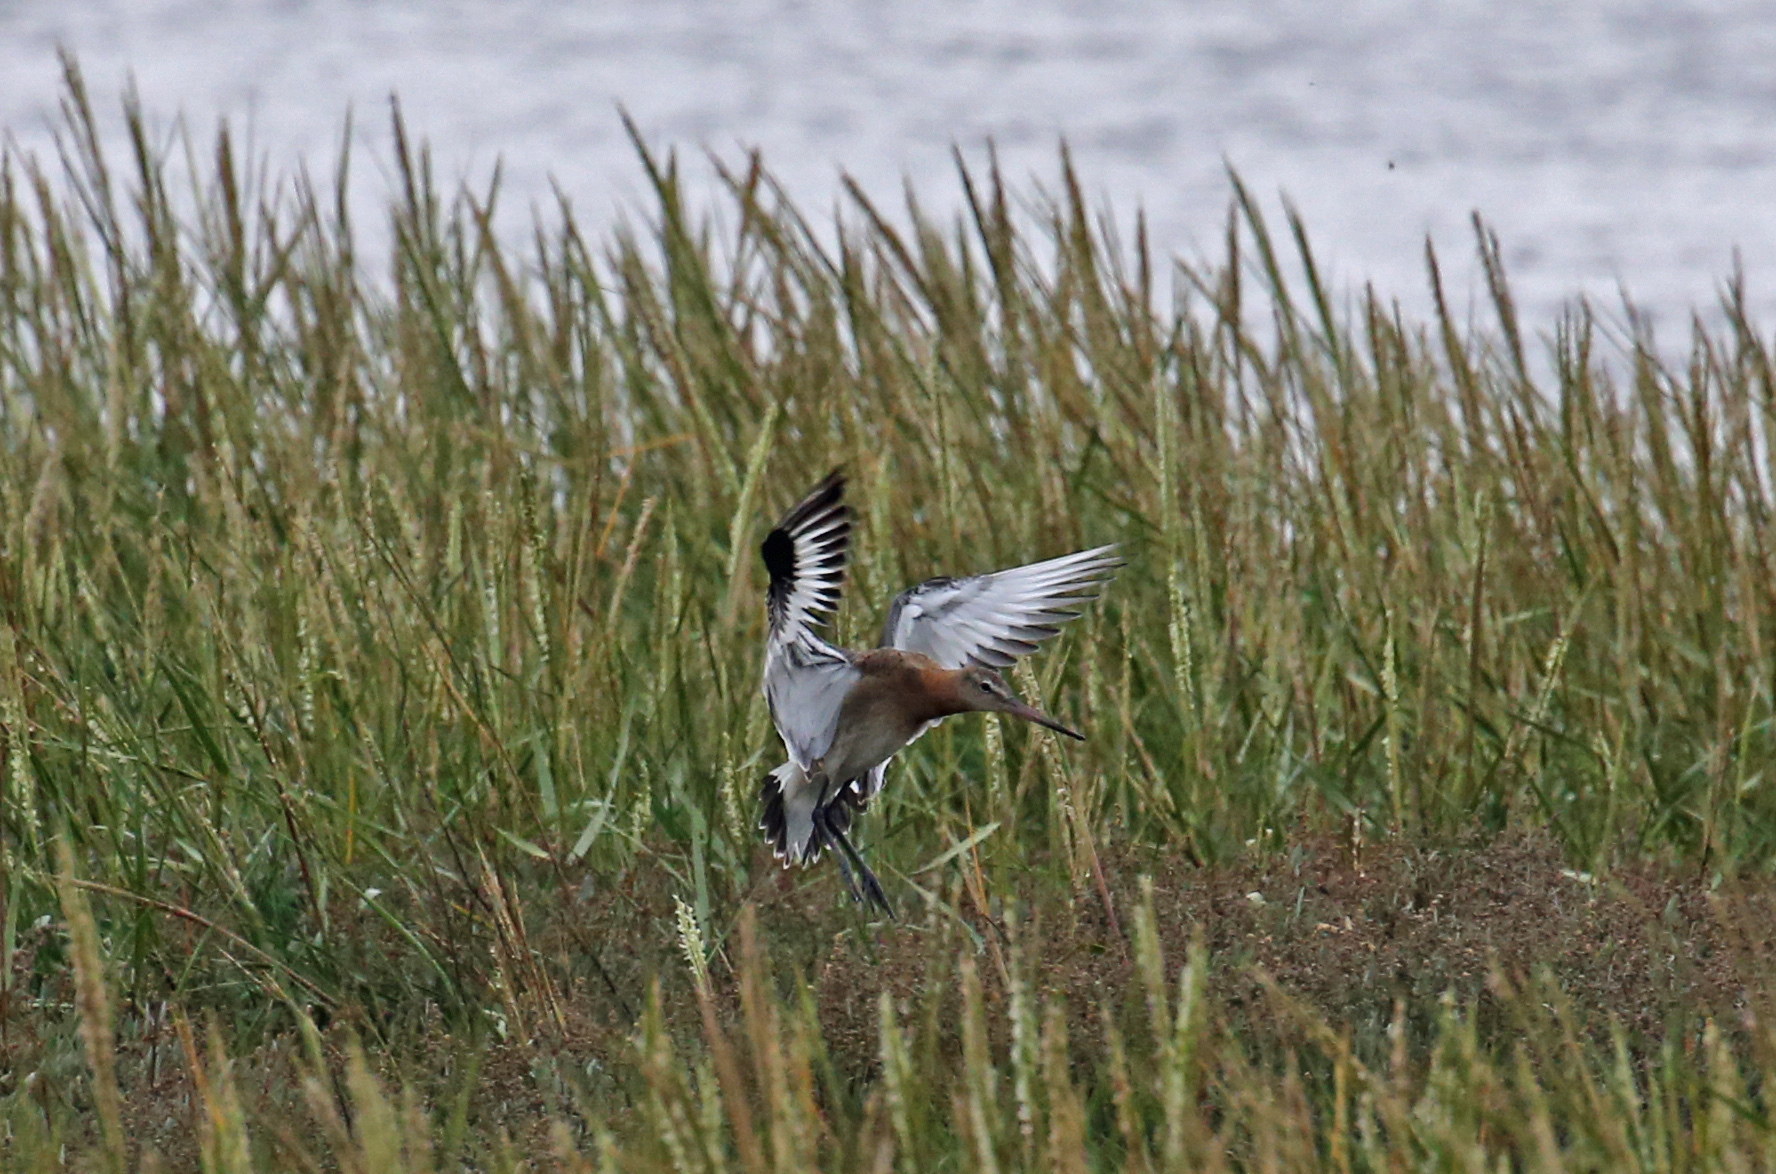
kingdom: Animalia
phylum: Chordata
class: Aves
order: Charadriiformes
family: Scolopacidae
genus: Limosa
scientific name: Limosa limosa
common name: Black-tailed godwit
